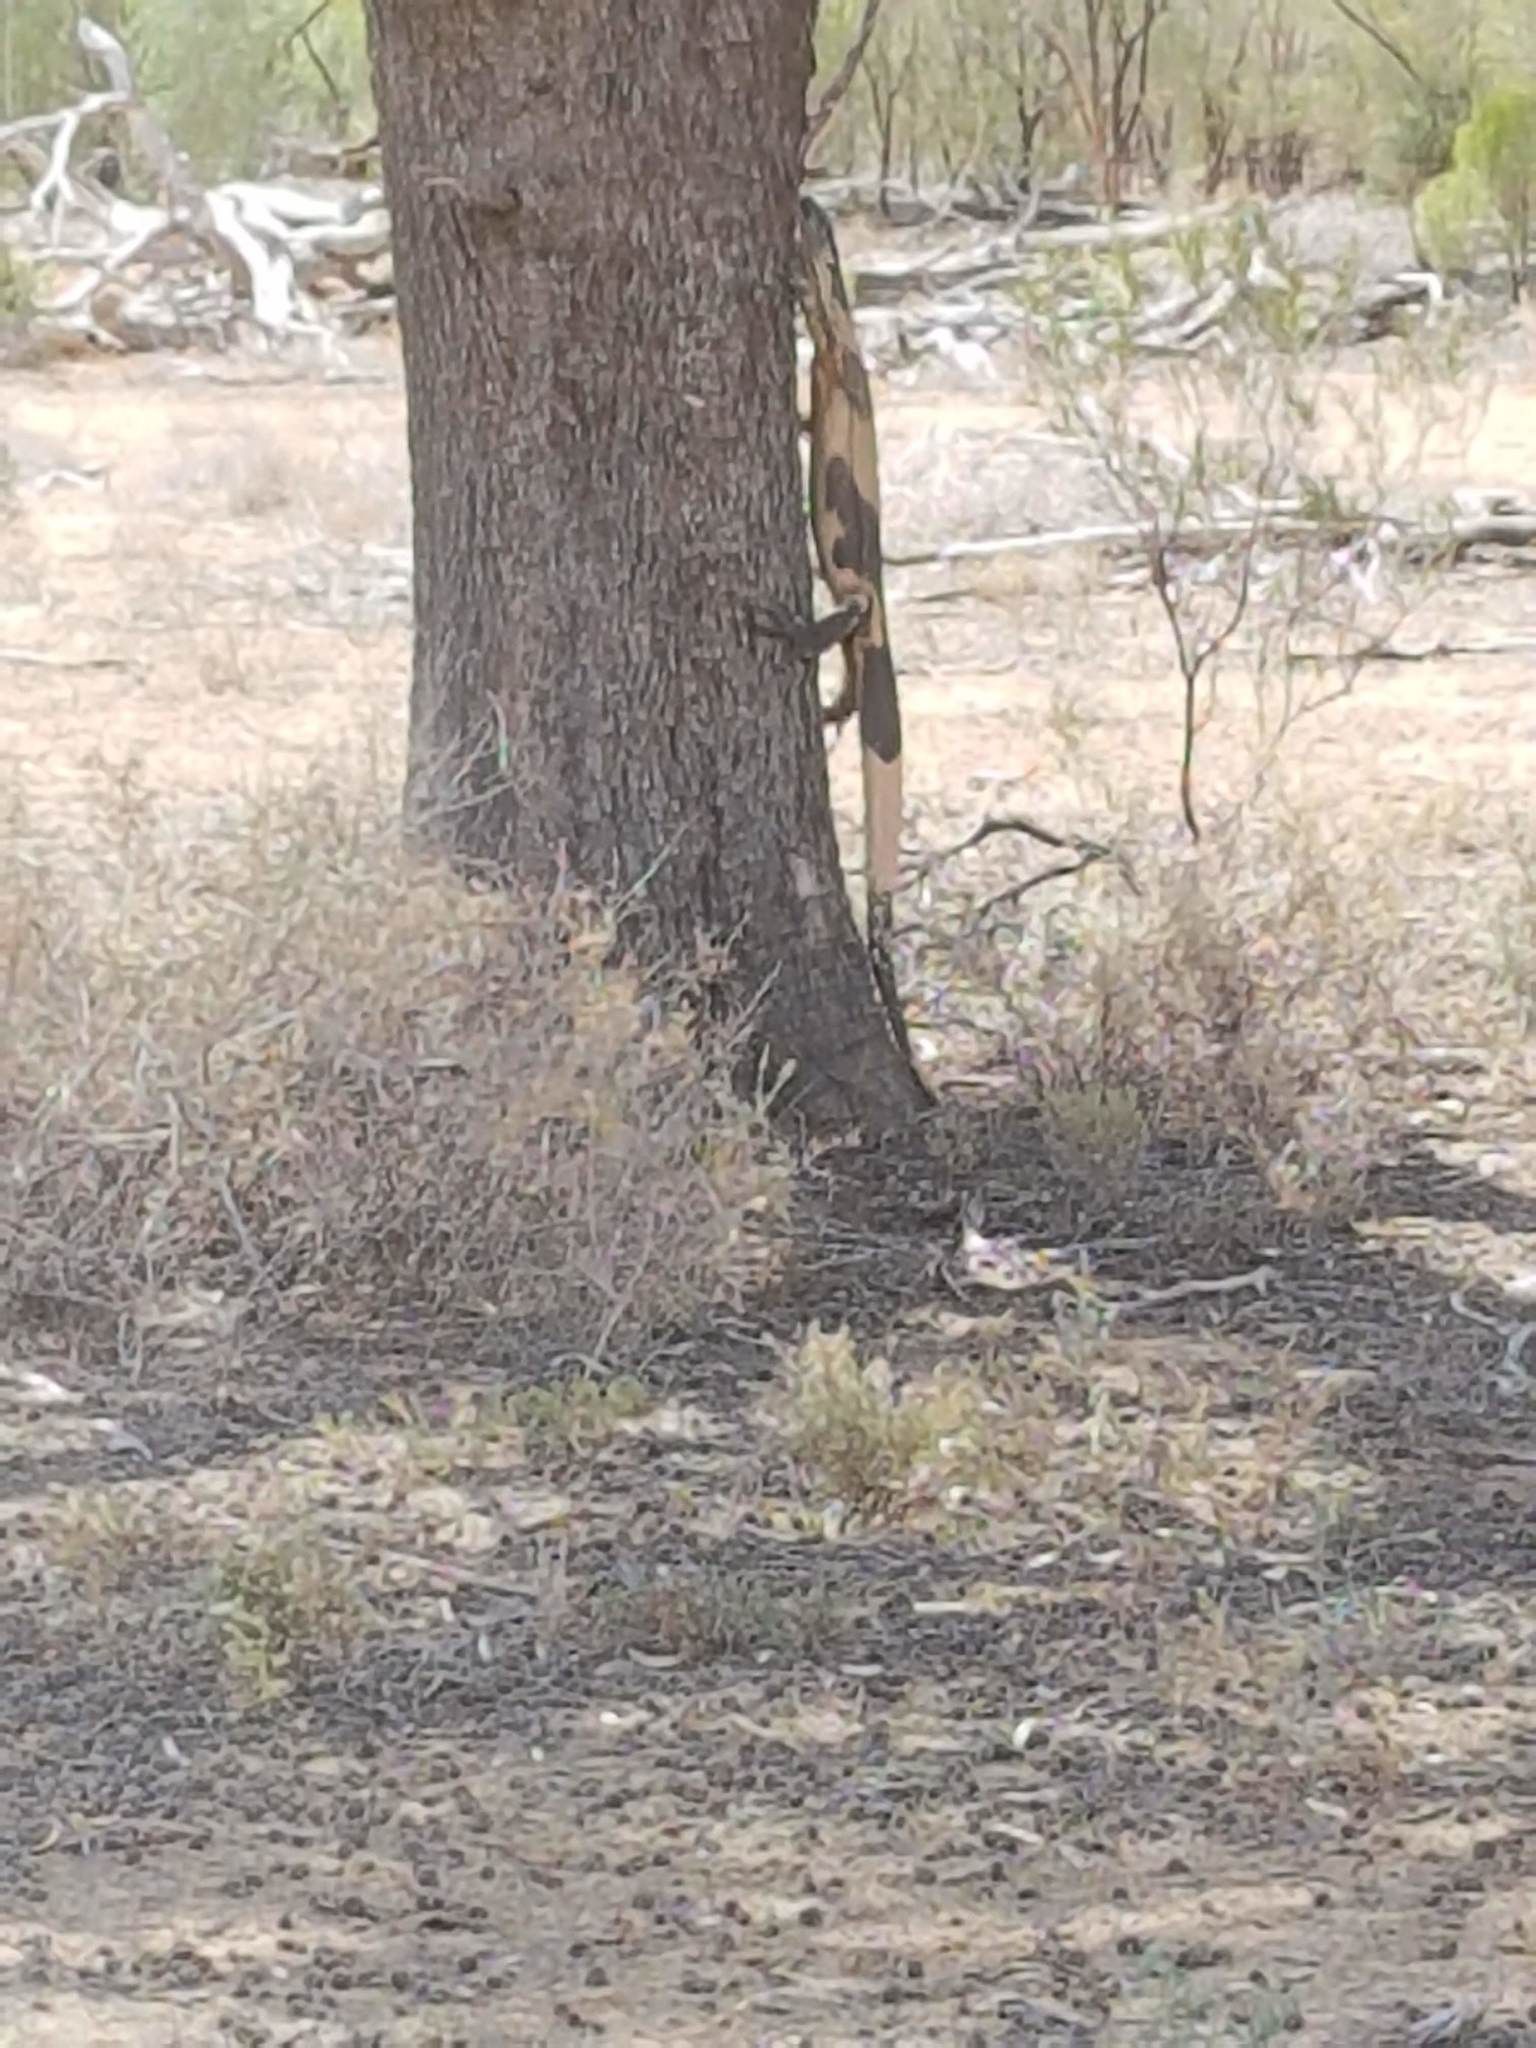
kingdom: Animalia
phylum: Chordata
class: Squamata
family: Varanidae
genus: Varanus
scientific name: Varanus varius
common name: Lace monitor
